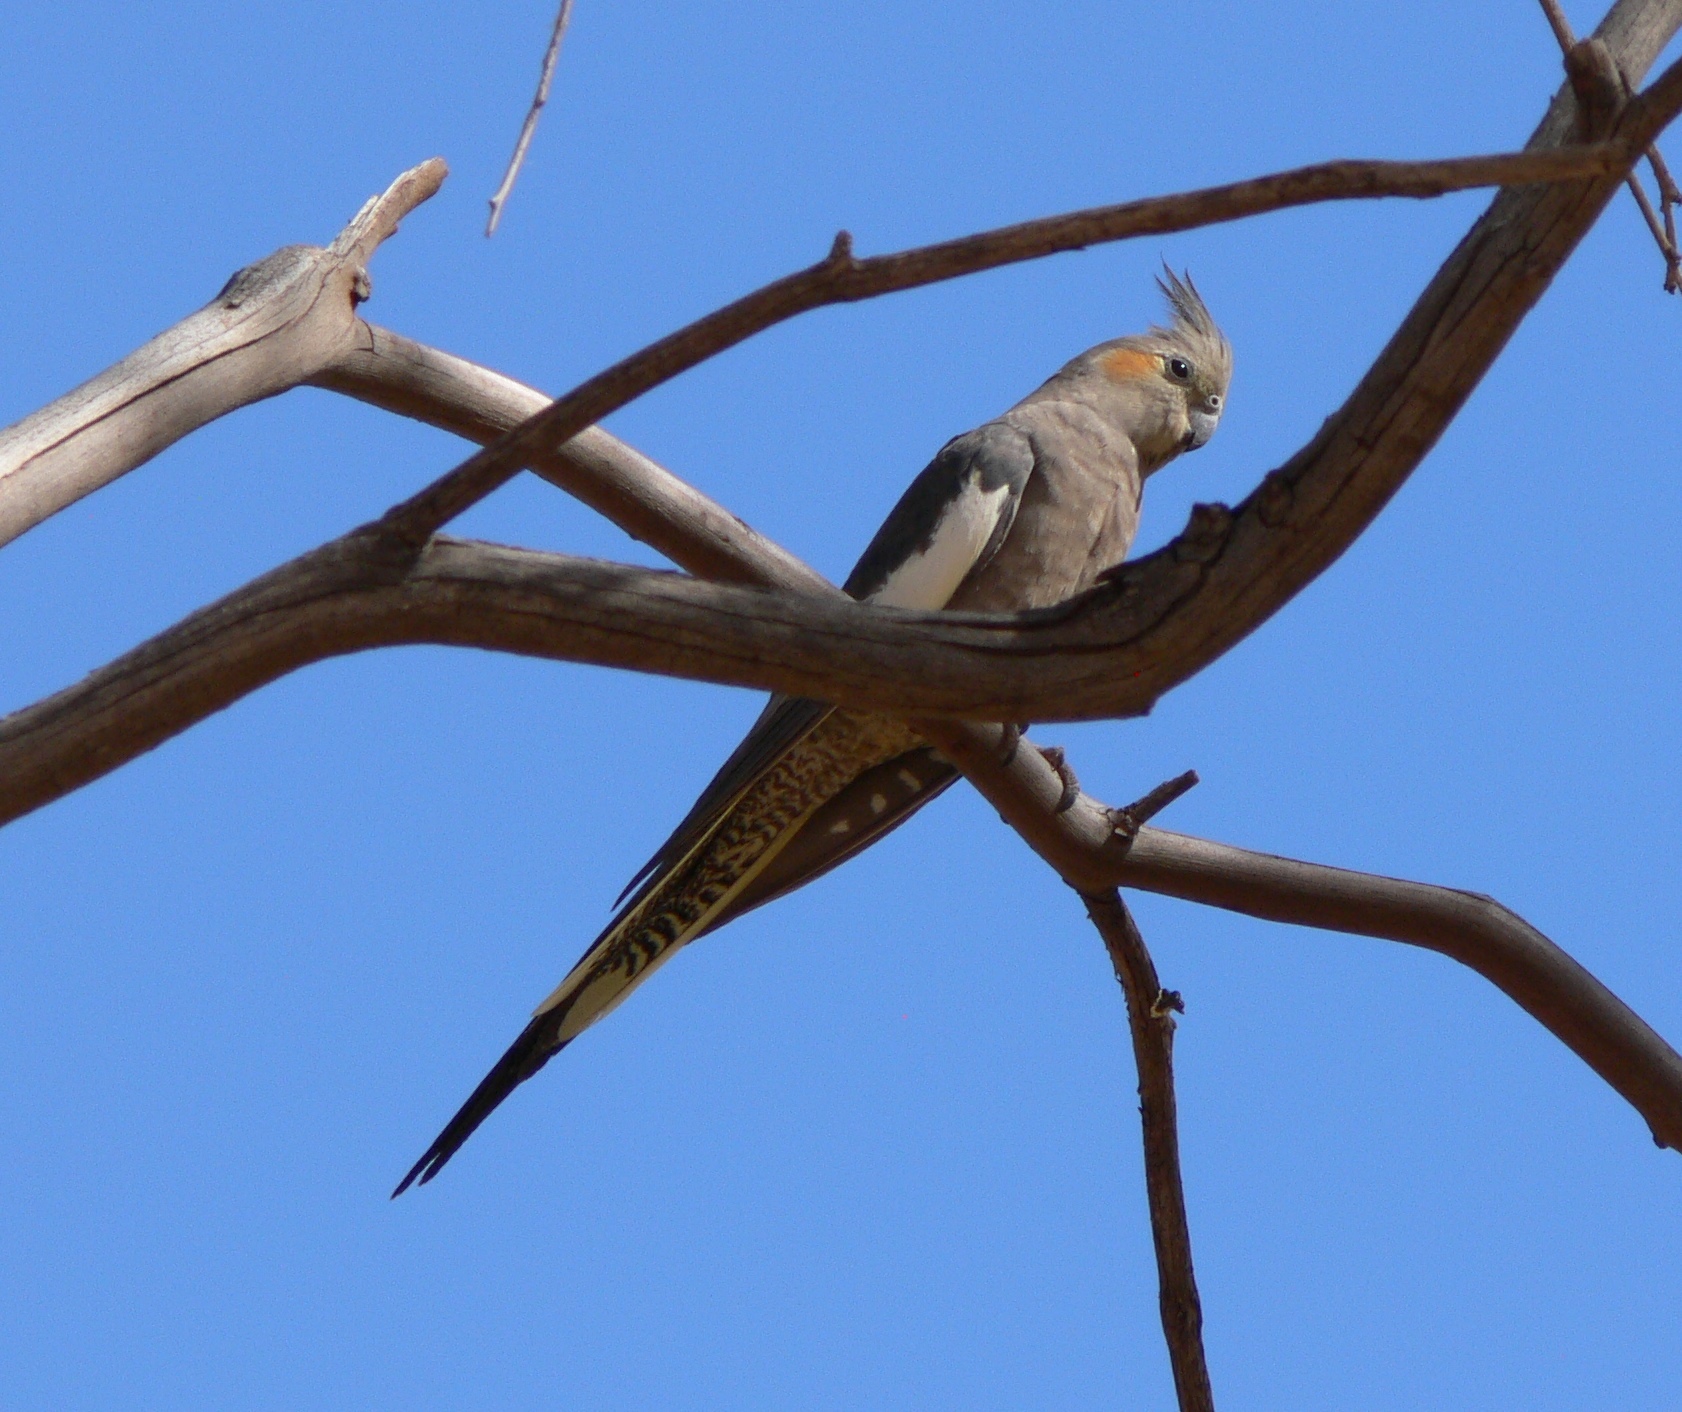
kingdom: Animalia
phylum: Chordata
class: Aves
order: Psittaciformes
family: Psittacidae
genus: Nymphicus
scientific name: Nymphicus hollandicus
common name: Cockatiel
